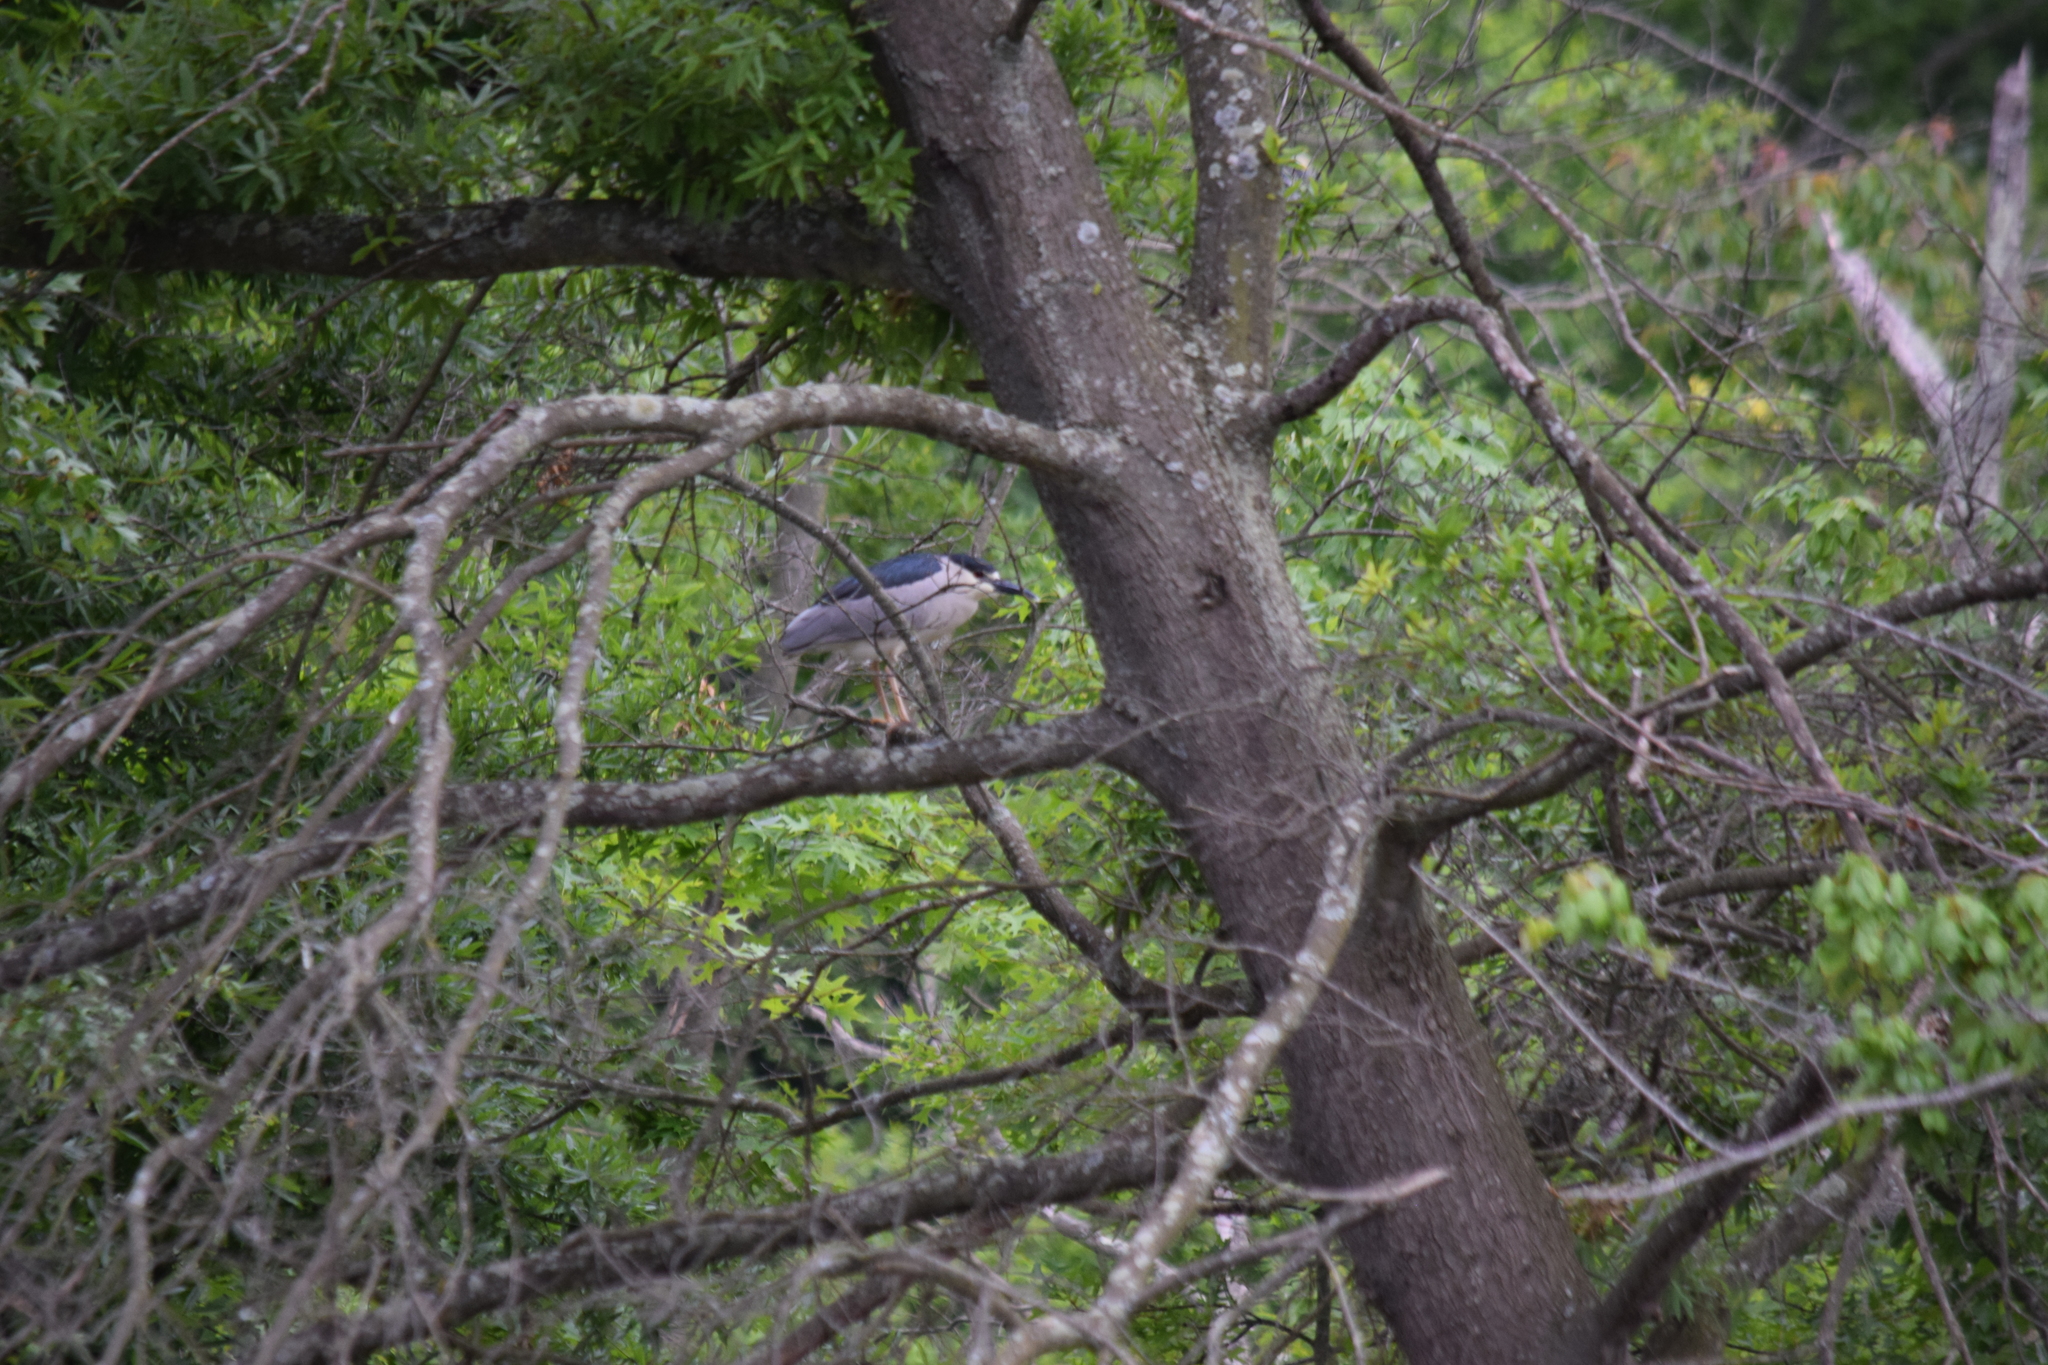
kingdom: Animalia
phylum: Chordata
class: Aves
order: Pelecaniformes
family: Ardeidae
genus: Nycticorax
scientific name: Nycticorax nycticorax
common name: Black-crowned night heron
